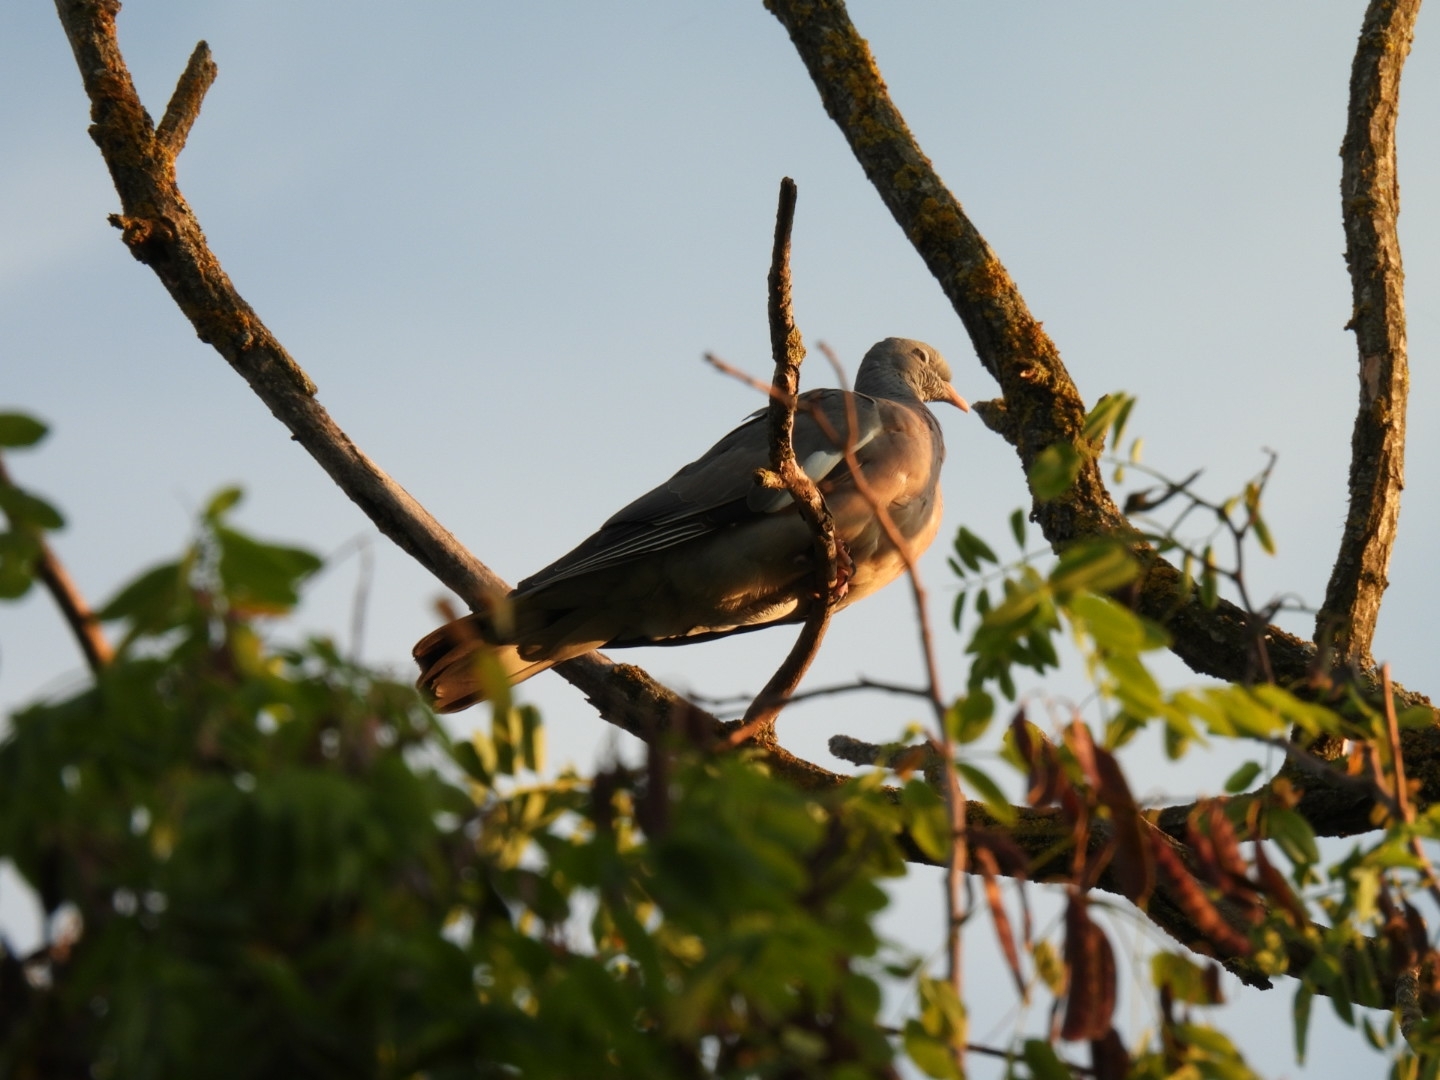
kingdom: Animalia
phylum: Chordata
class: Aves
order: Columbiformes
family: Columbidae
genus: Columba
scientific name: Columba palumbus
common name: Common wood pigeon
